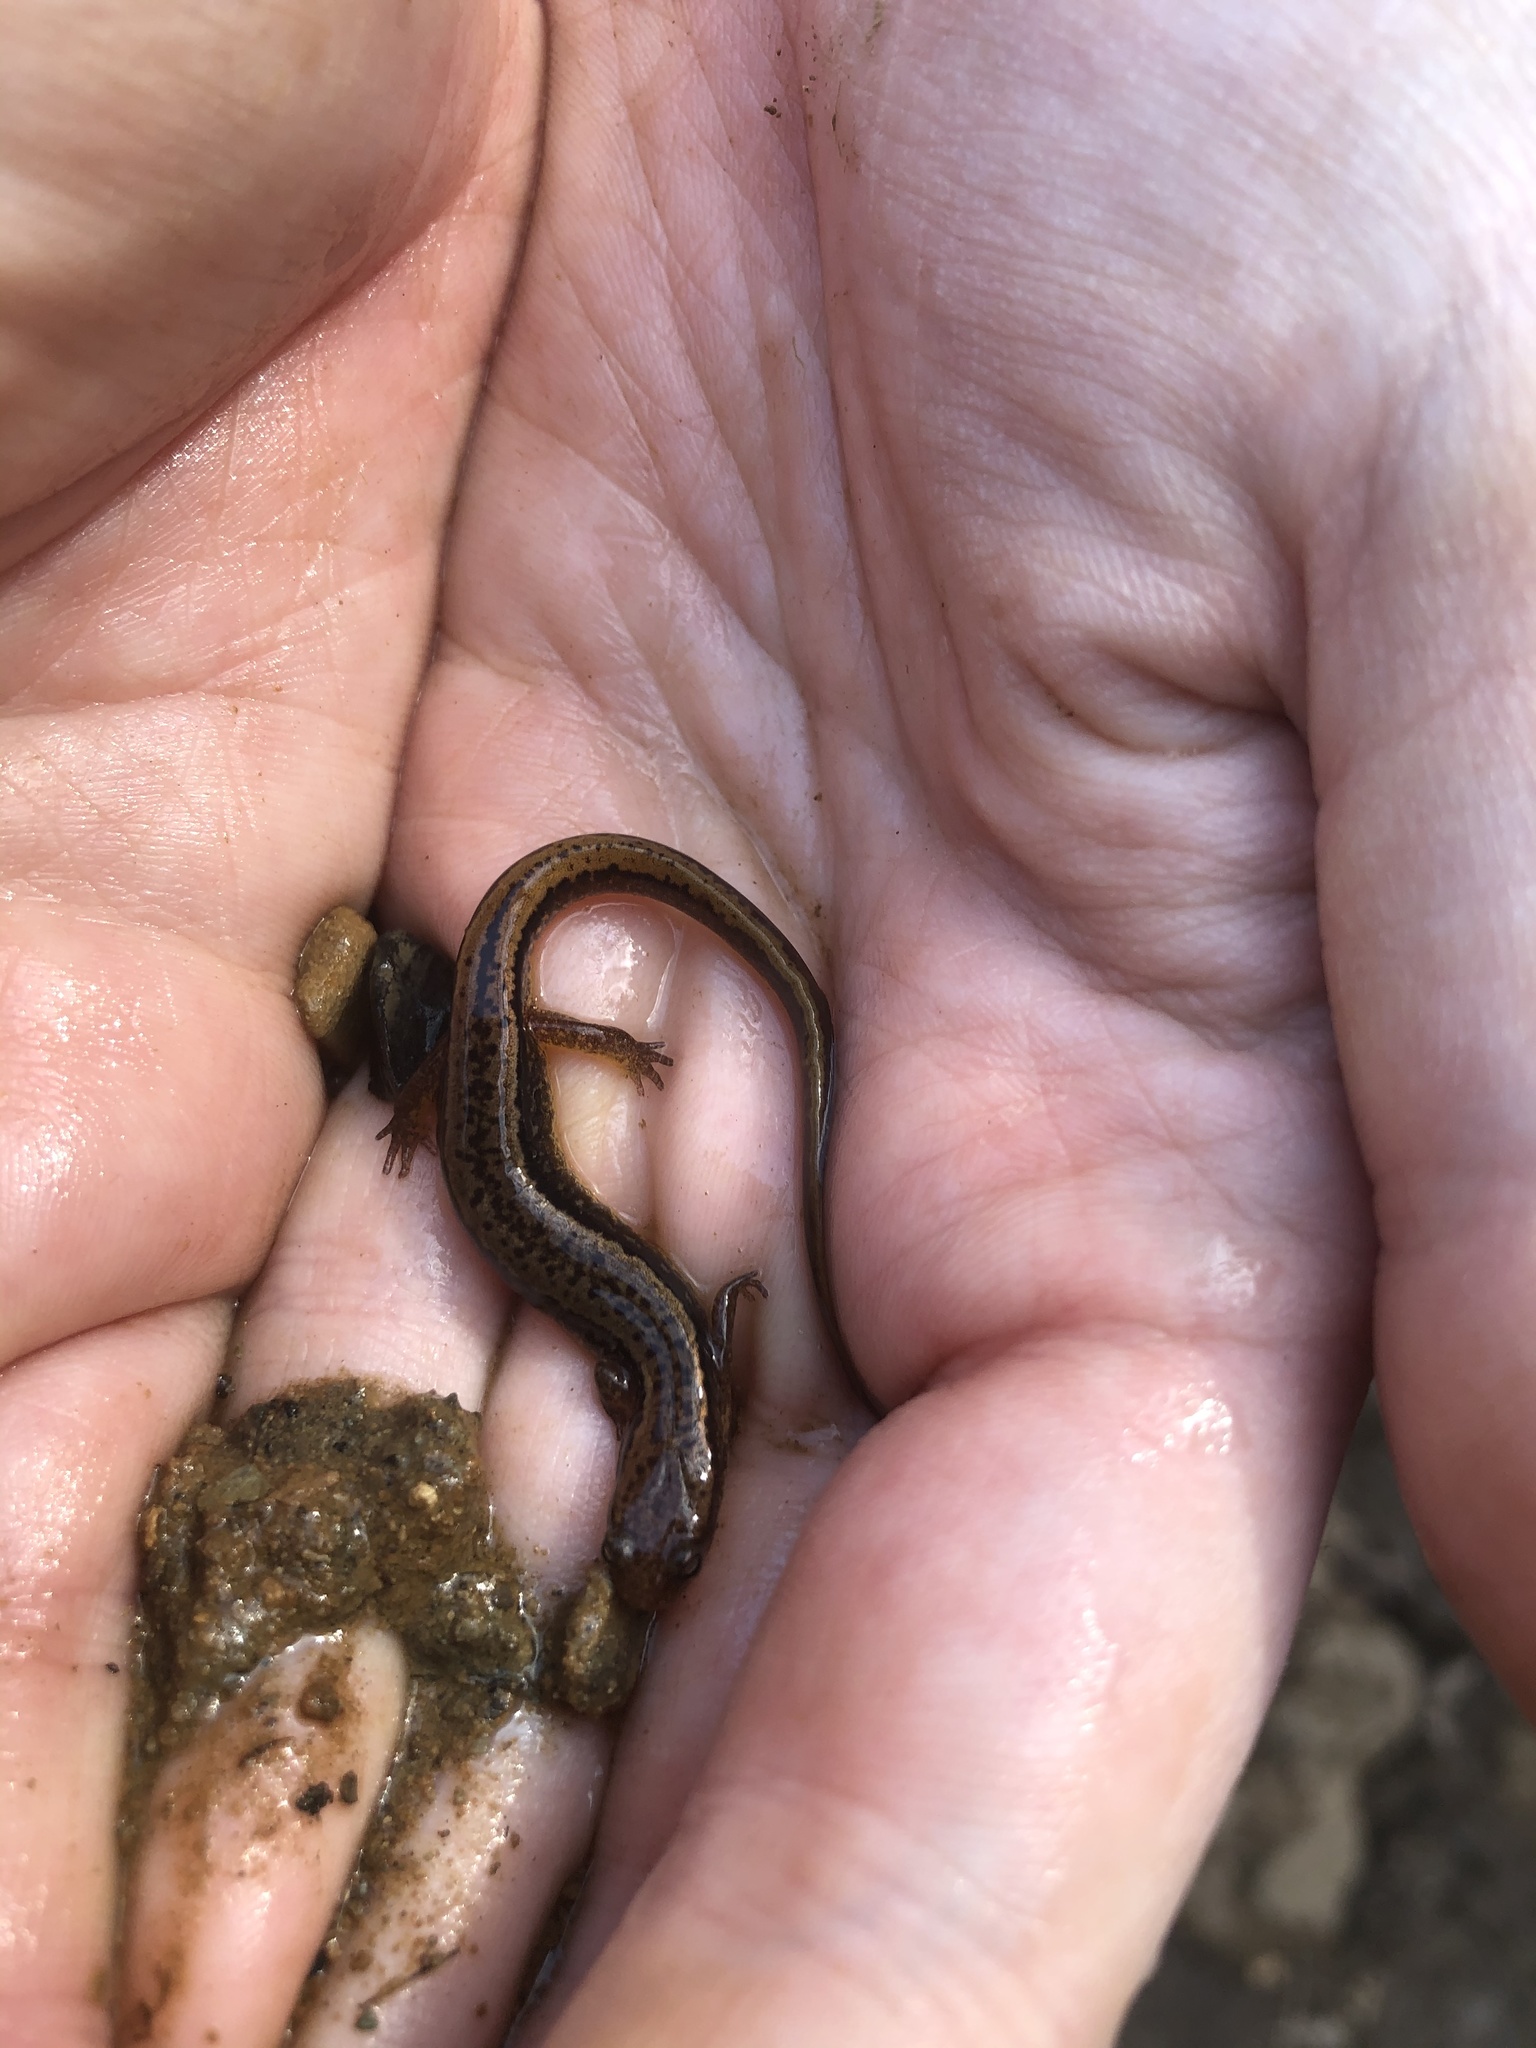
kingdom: Animalia
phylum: Chordata
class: Amphibia
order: Caudata
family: Plethodontidae
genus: Eurycea
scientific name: Eurycea cirrigera
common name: Southern two-lined salamander
